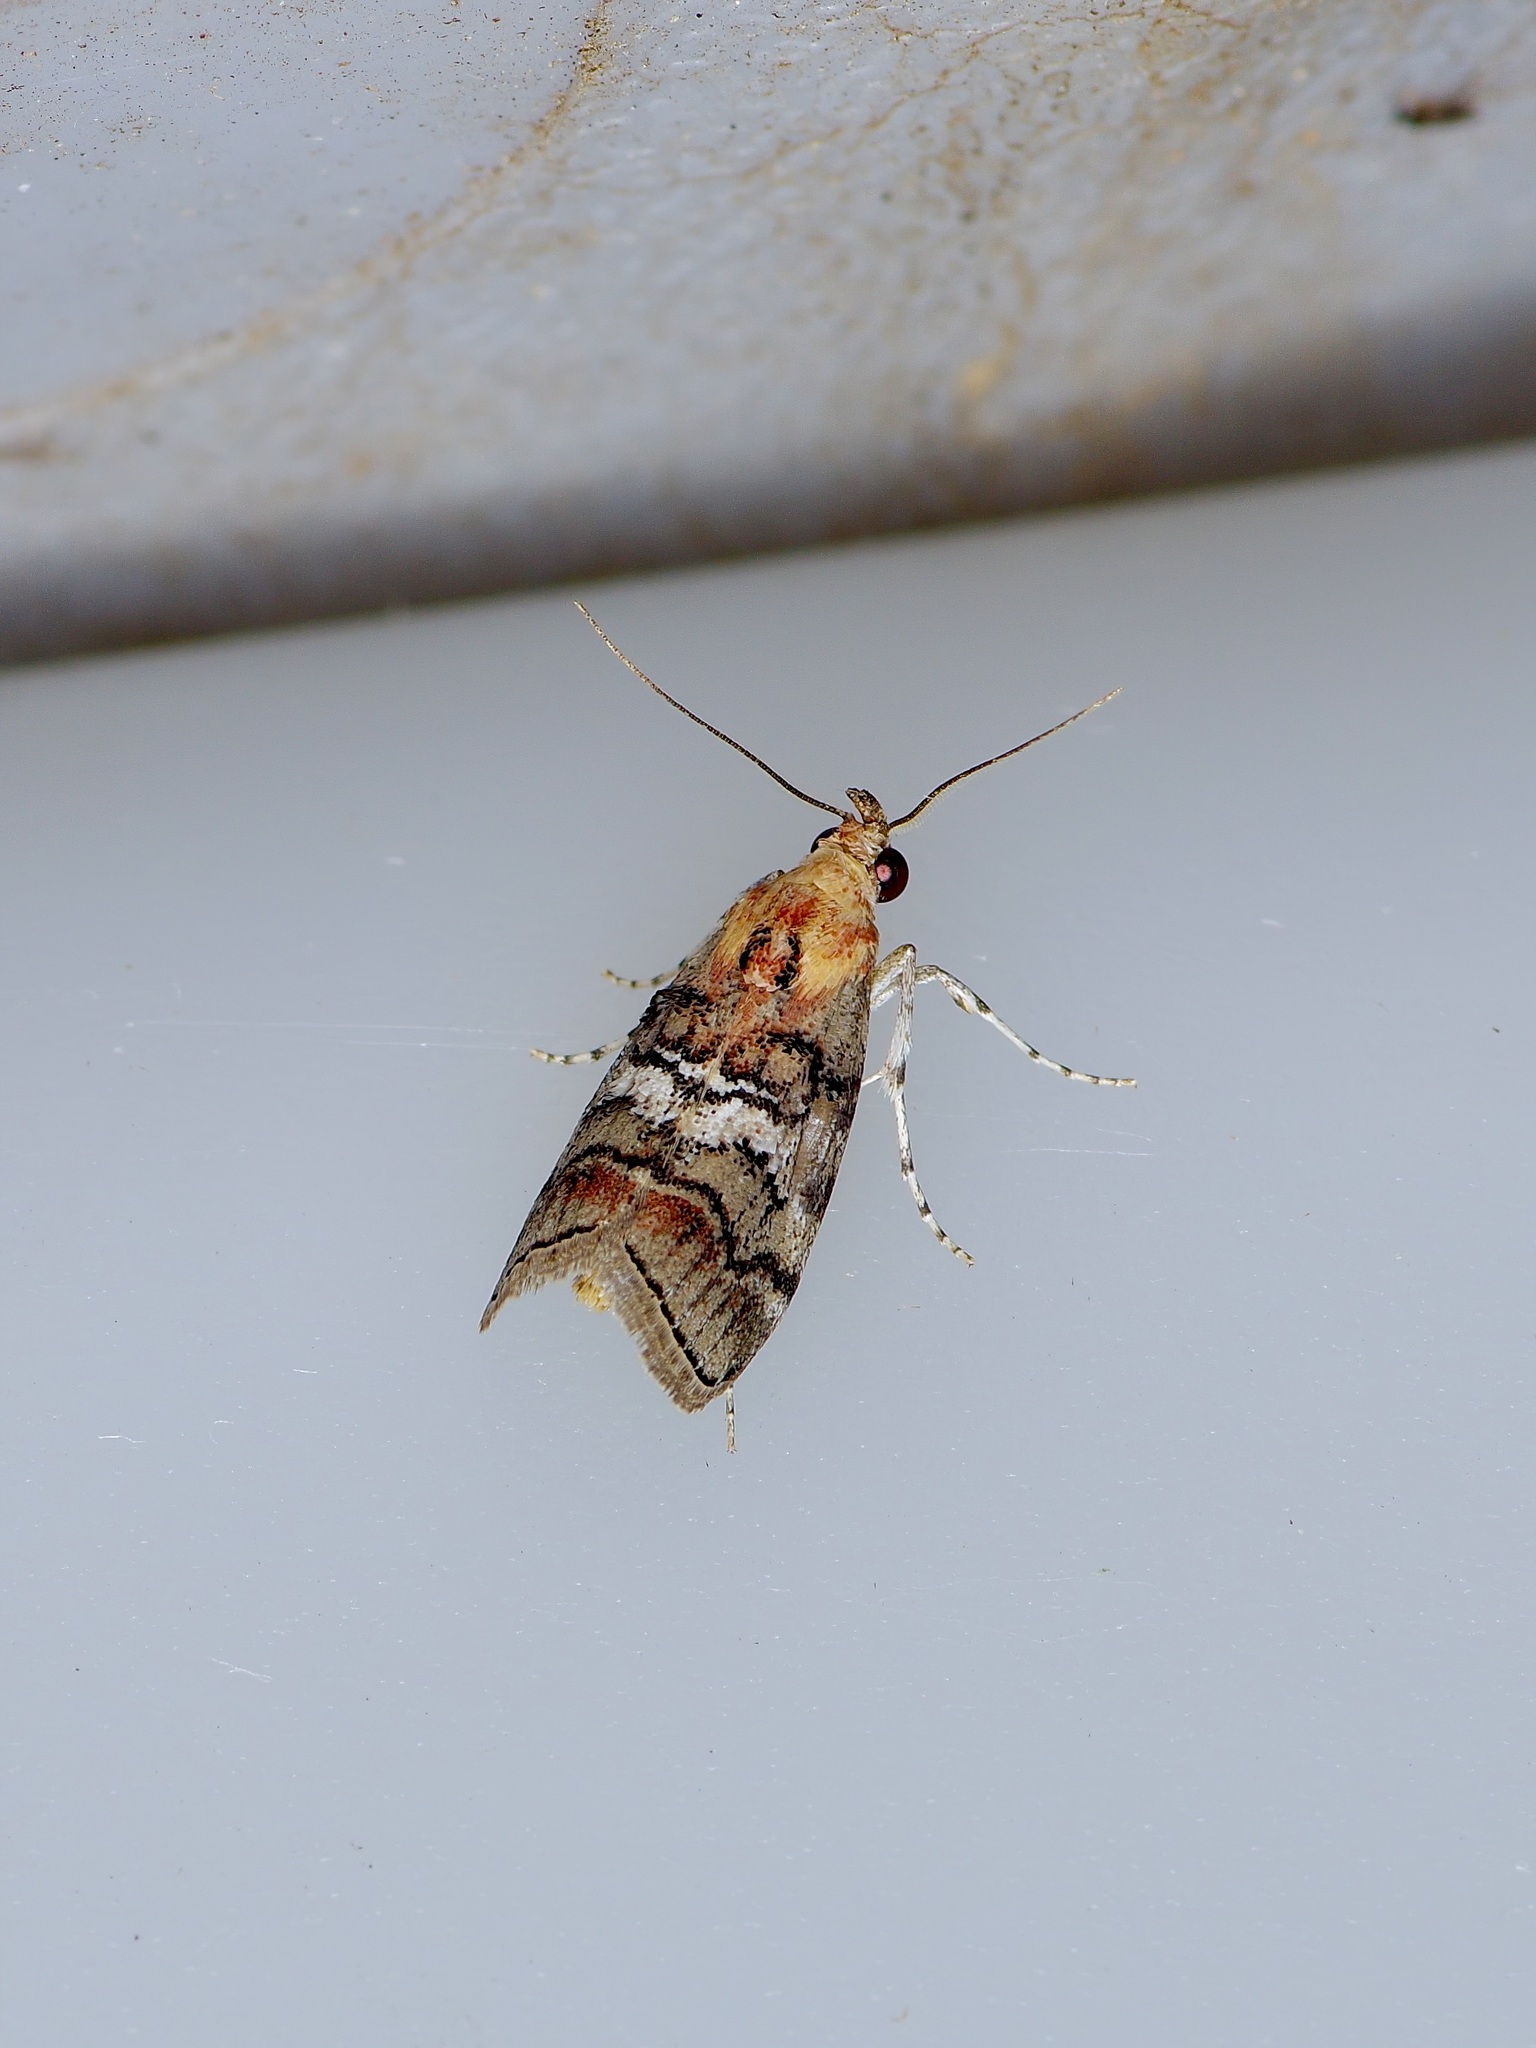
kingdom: Animalia
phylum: Arthropoda
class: Insecta
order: Lepidoptera
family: Pyralidae
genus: Pococera
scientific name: Pococera maritimalis
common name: Gray-banded pococera moth
